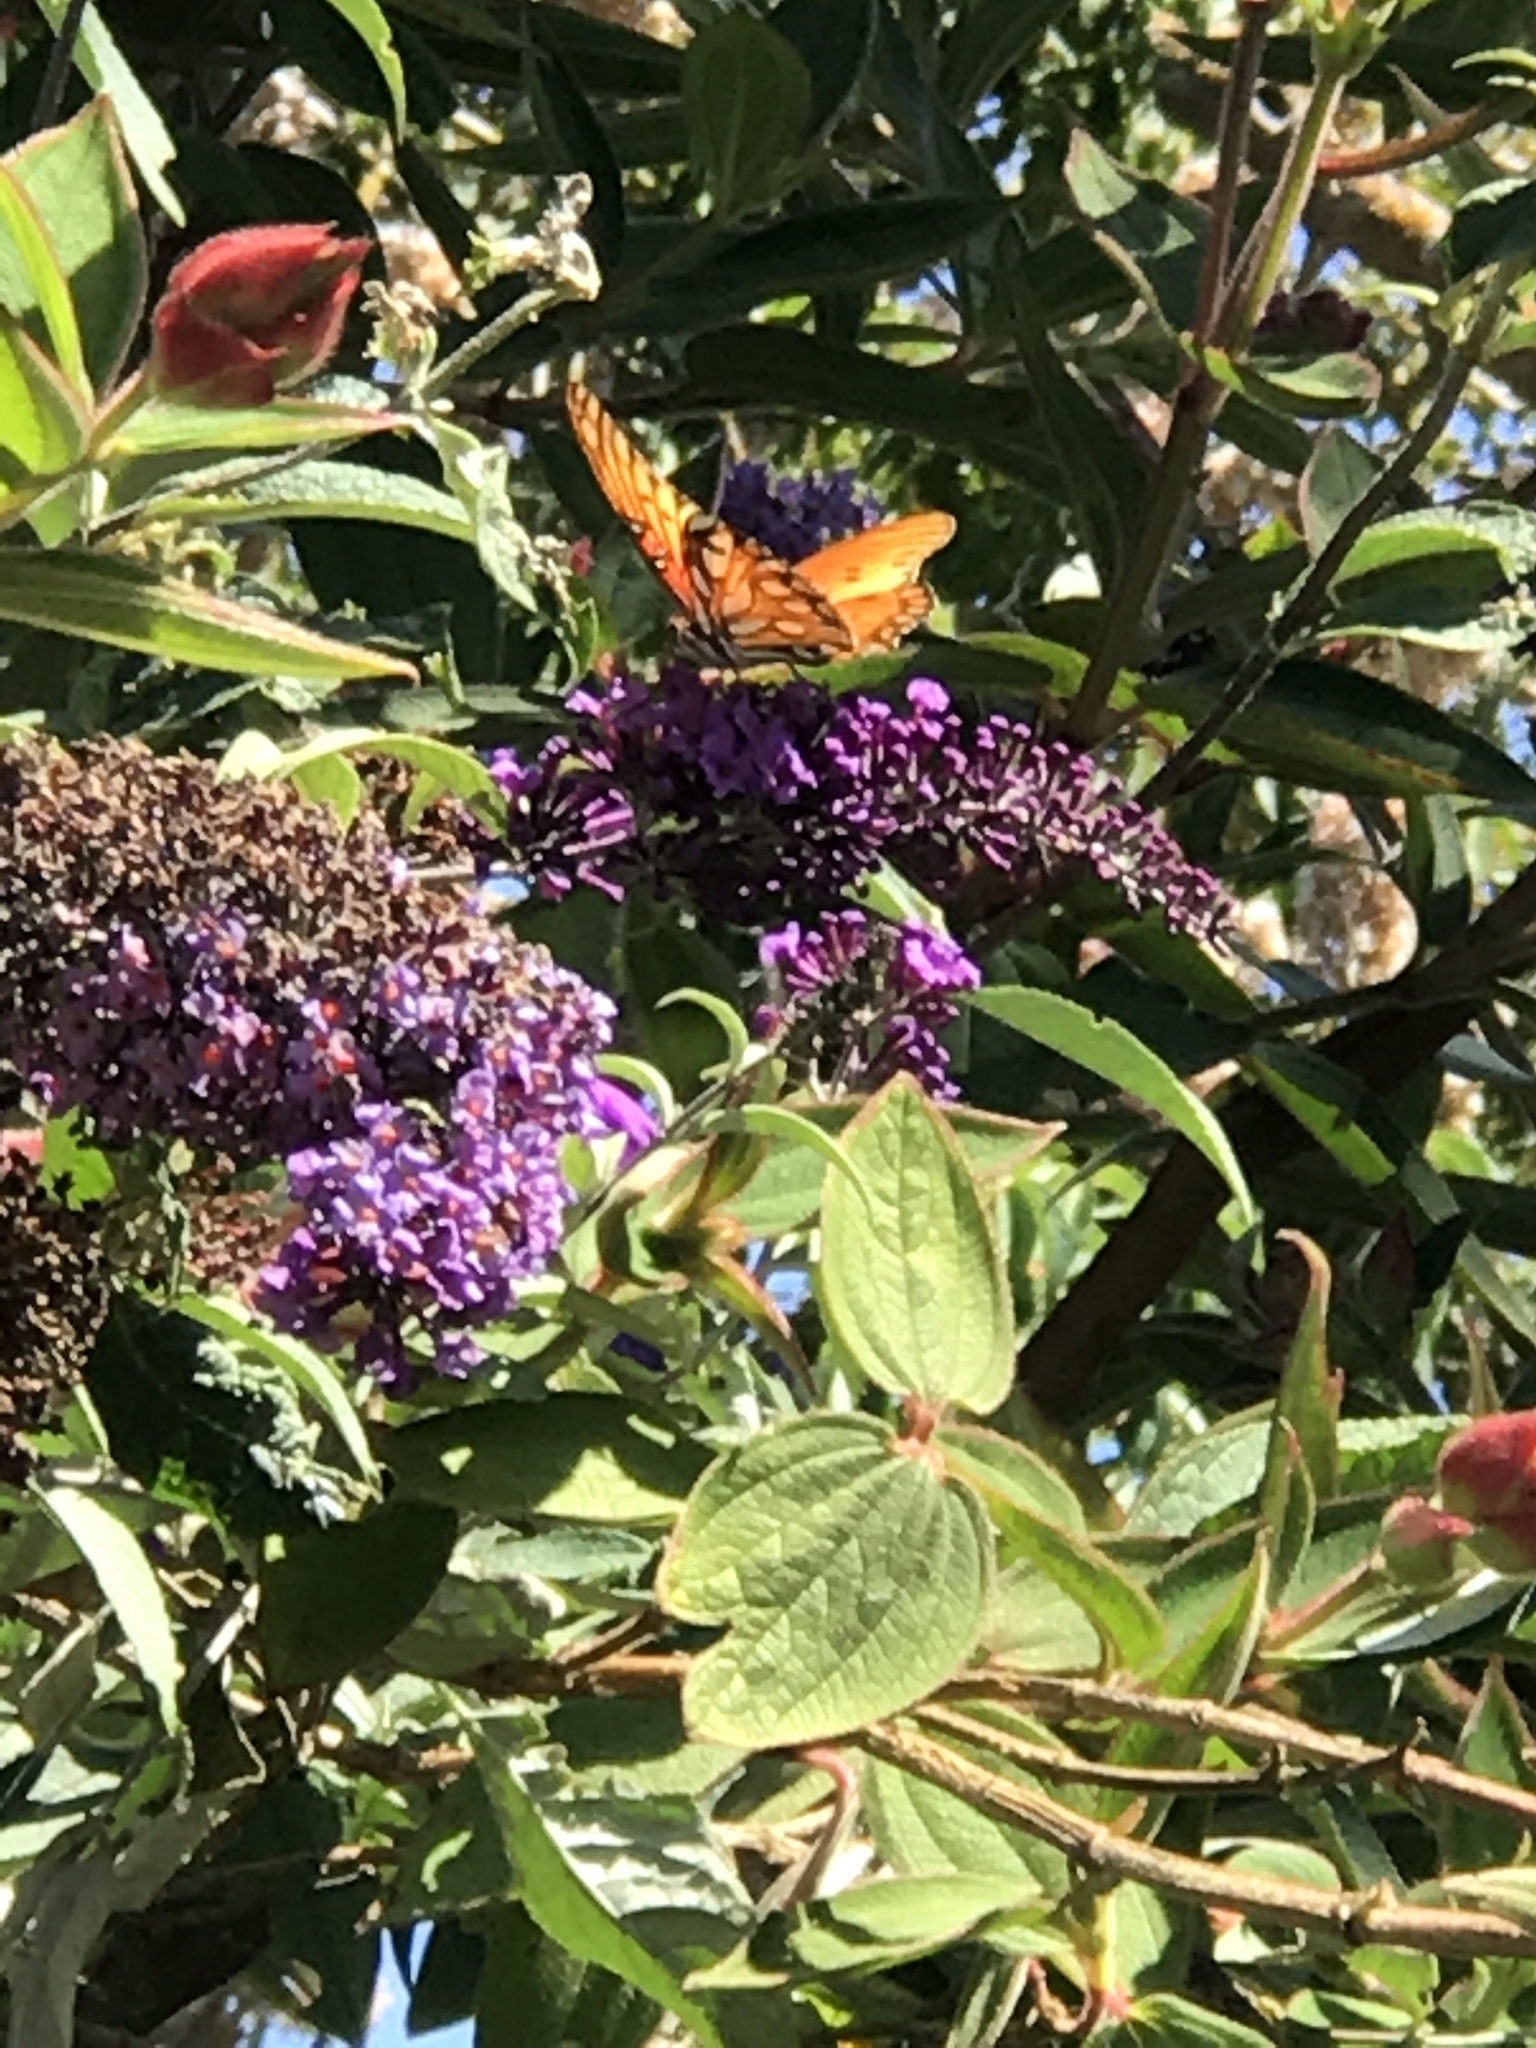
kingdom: Animalia
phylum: Arthropoda
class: Insecta
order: Lepidoptera
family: Nymphalidae
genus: Dione
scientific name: Dione vanillae
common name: Gulf fritillary
